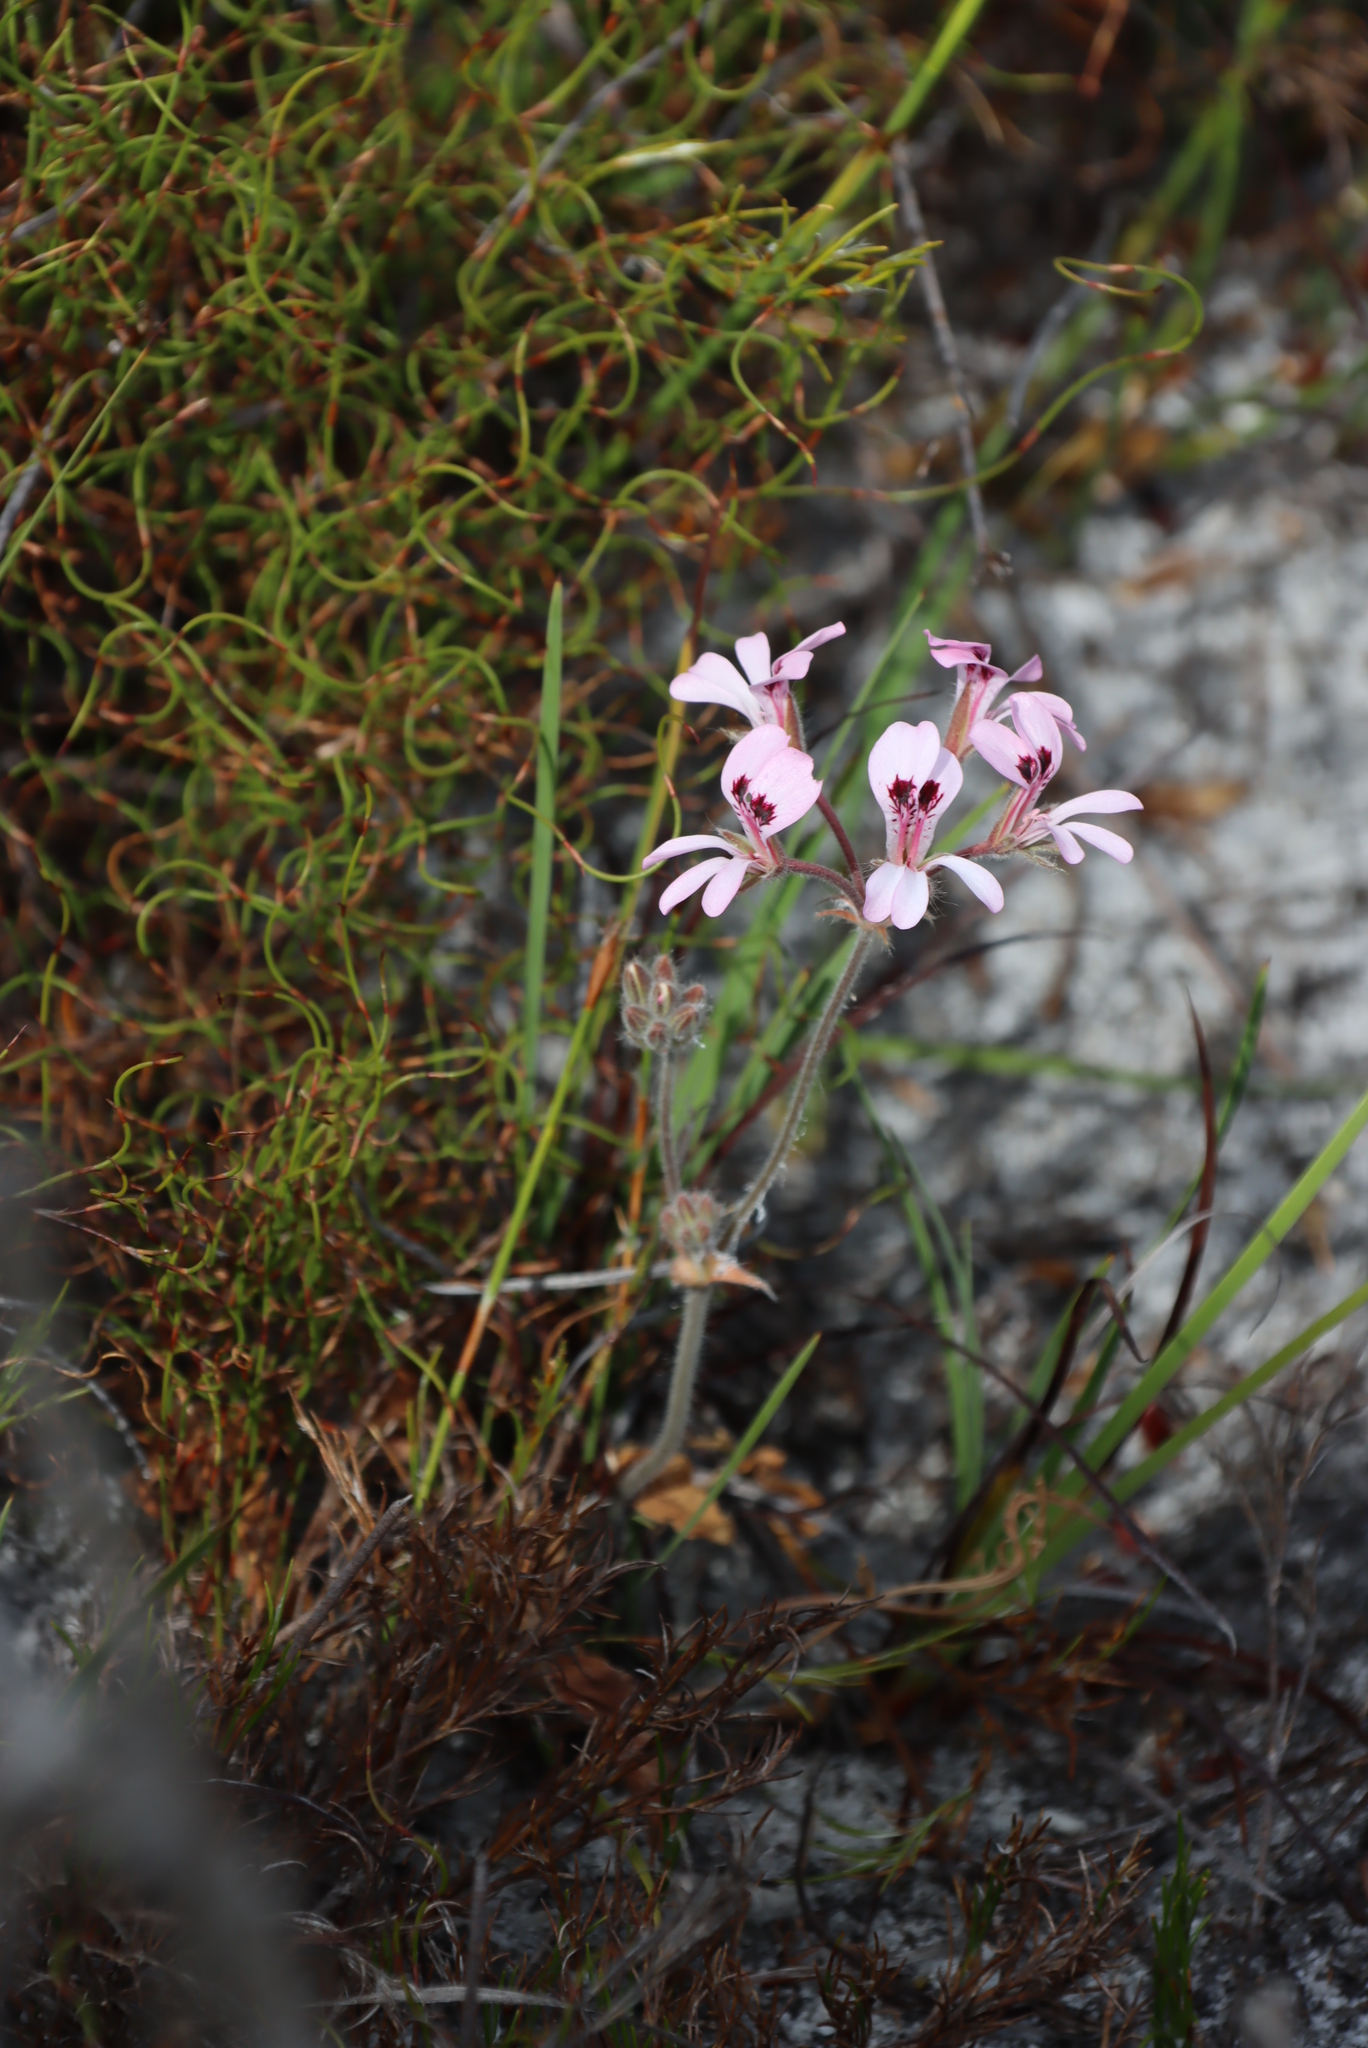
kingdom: Plantae
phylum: Tracheophyta
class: Magnoliopsida
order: Geraniales
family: Geraniaceae
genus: Pelargonium
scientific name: Pelargonium psammophilum
